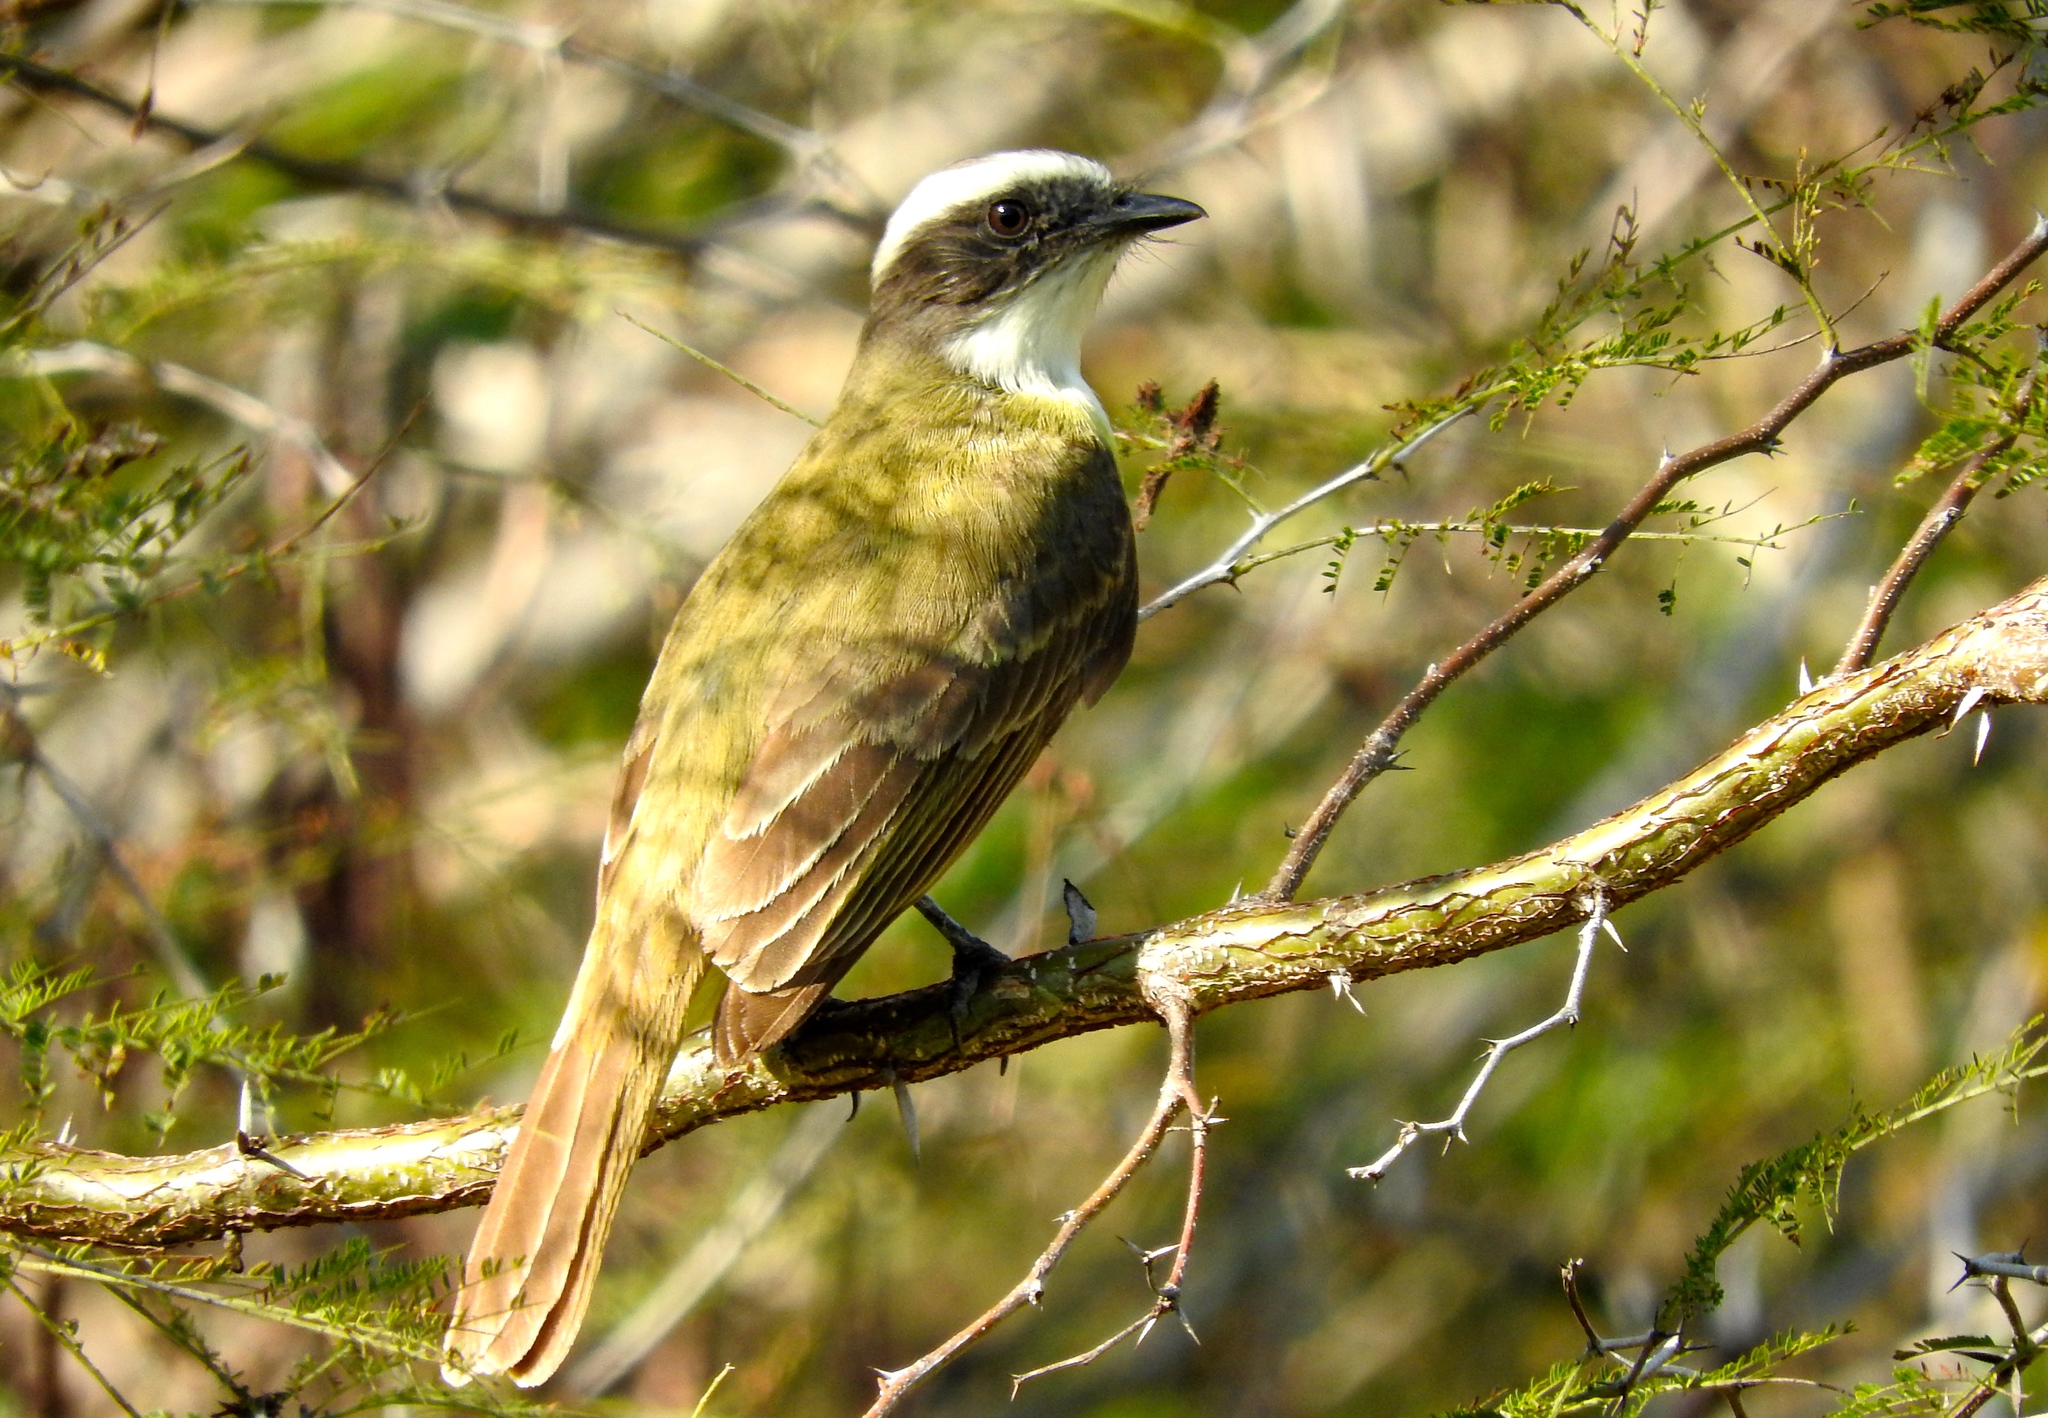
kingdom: Animalia
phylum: Chordata
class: Aves
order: Passeriformes
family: Tyrannidae
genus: Myiozetetes
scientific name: Myiozetetes similis
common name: Social flycatcher
